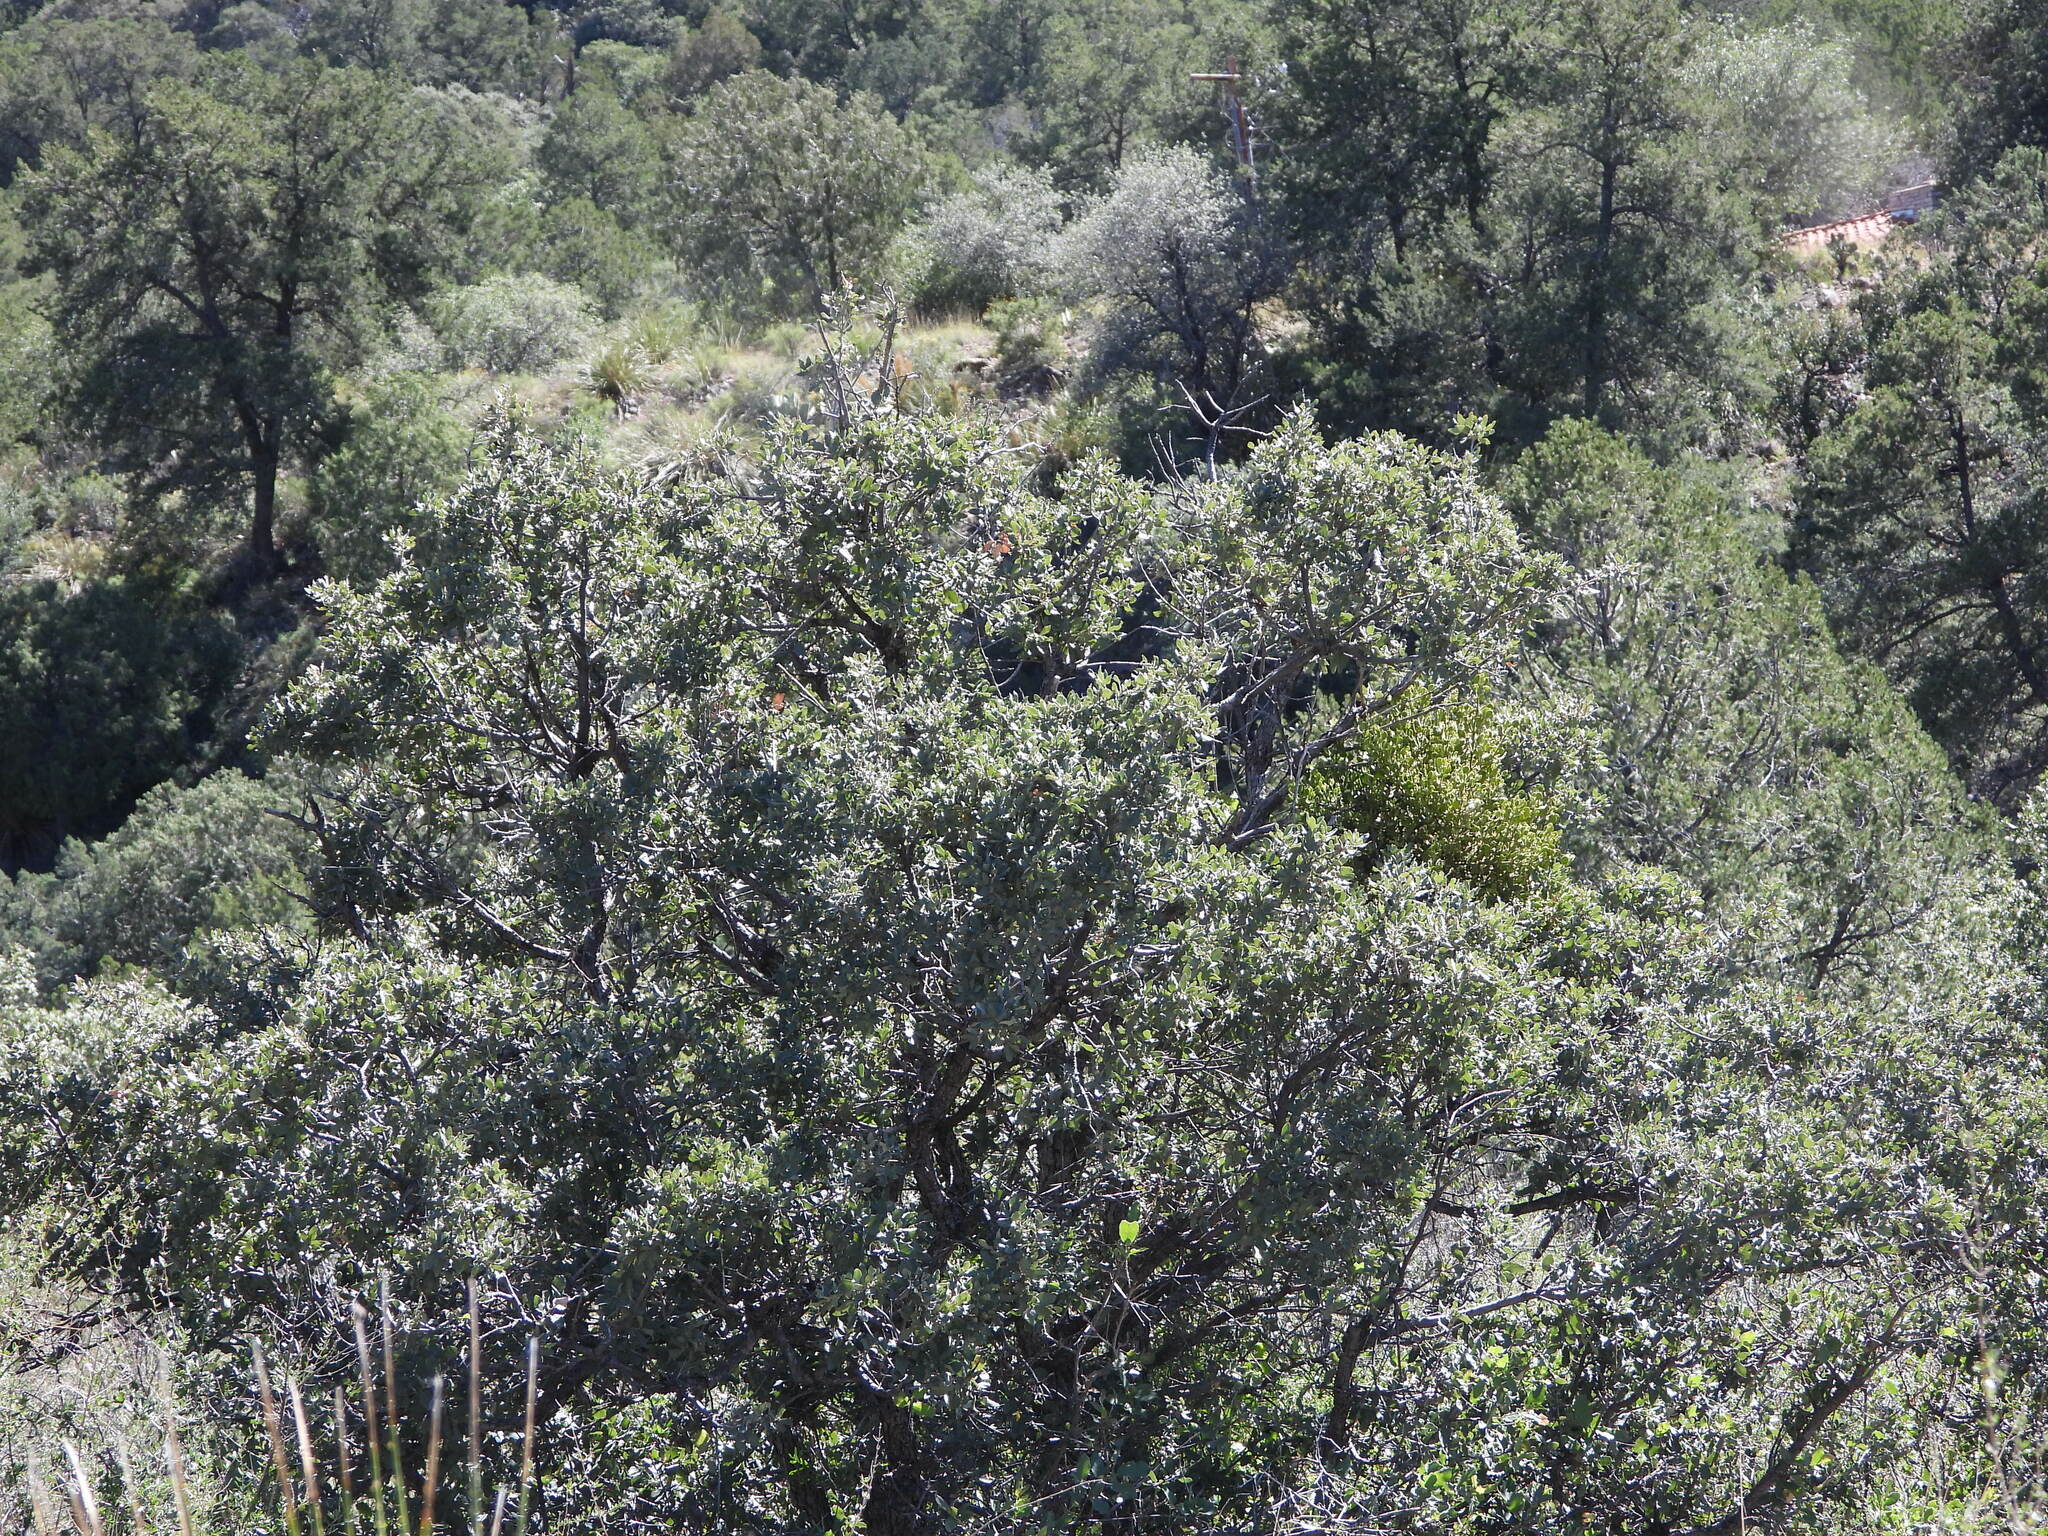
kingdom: Plantae
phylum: Tracheophyta
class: Magnoliopsida
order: Fagales
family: Fagaceae
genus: Quercus
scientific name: Quercus grisea
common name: Gray oak
